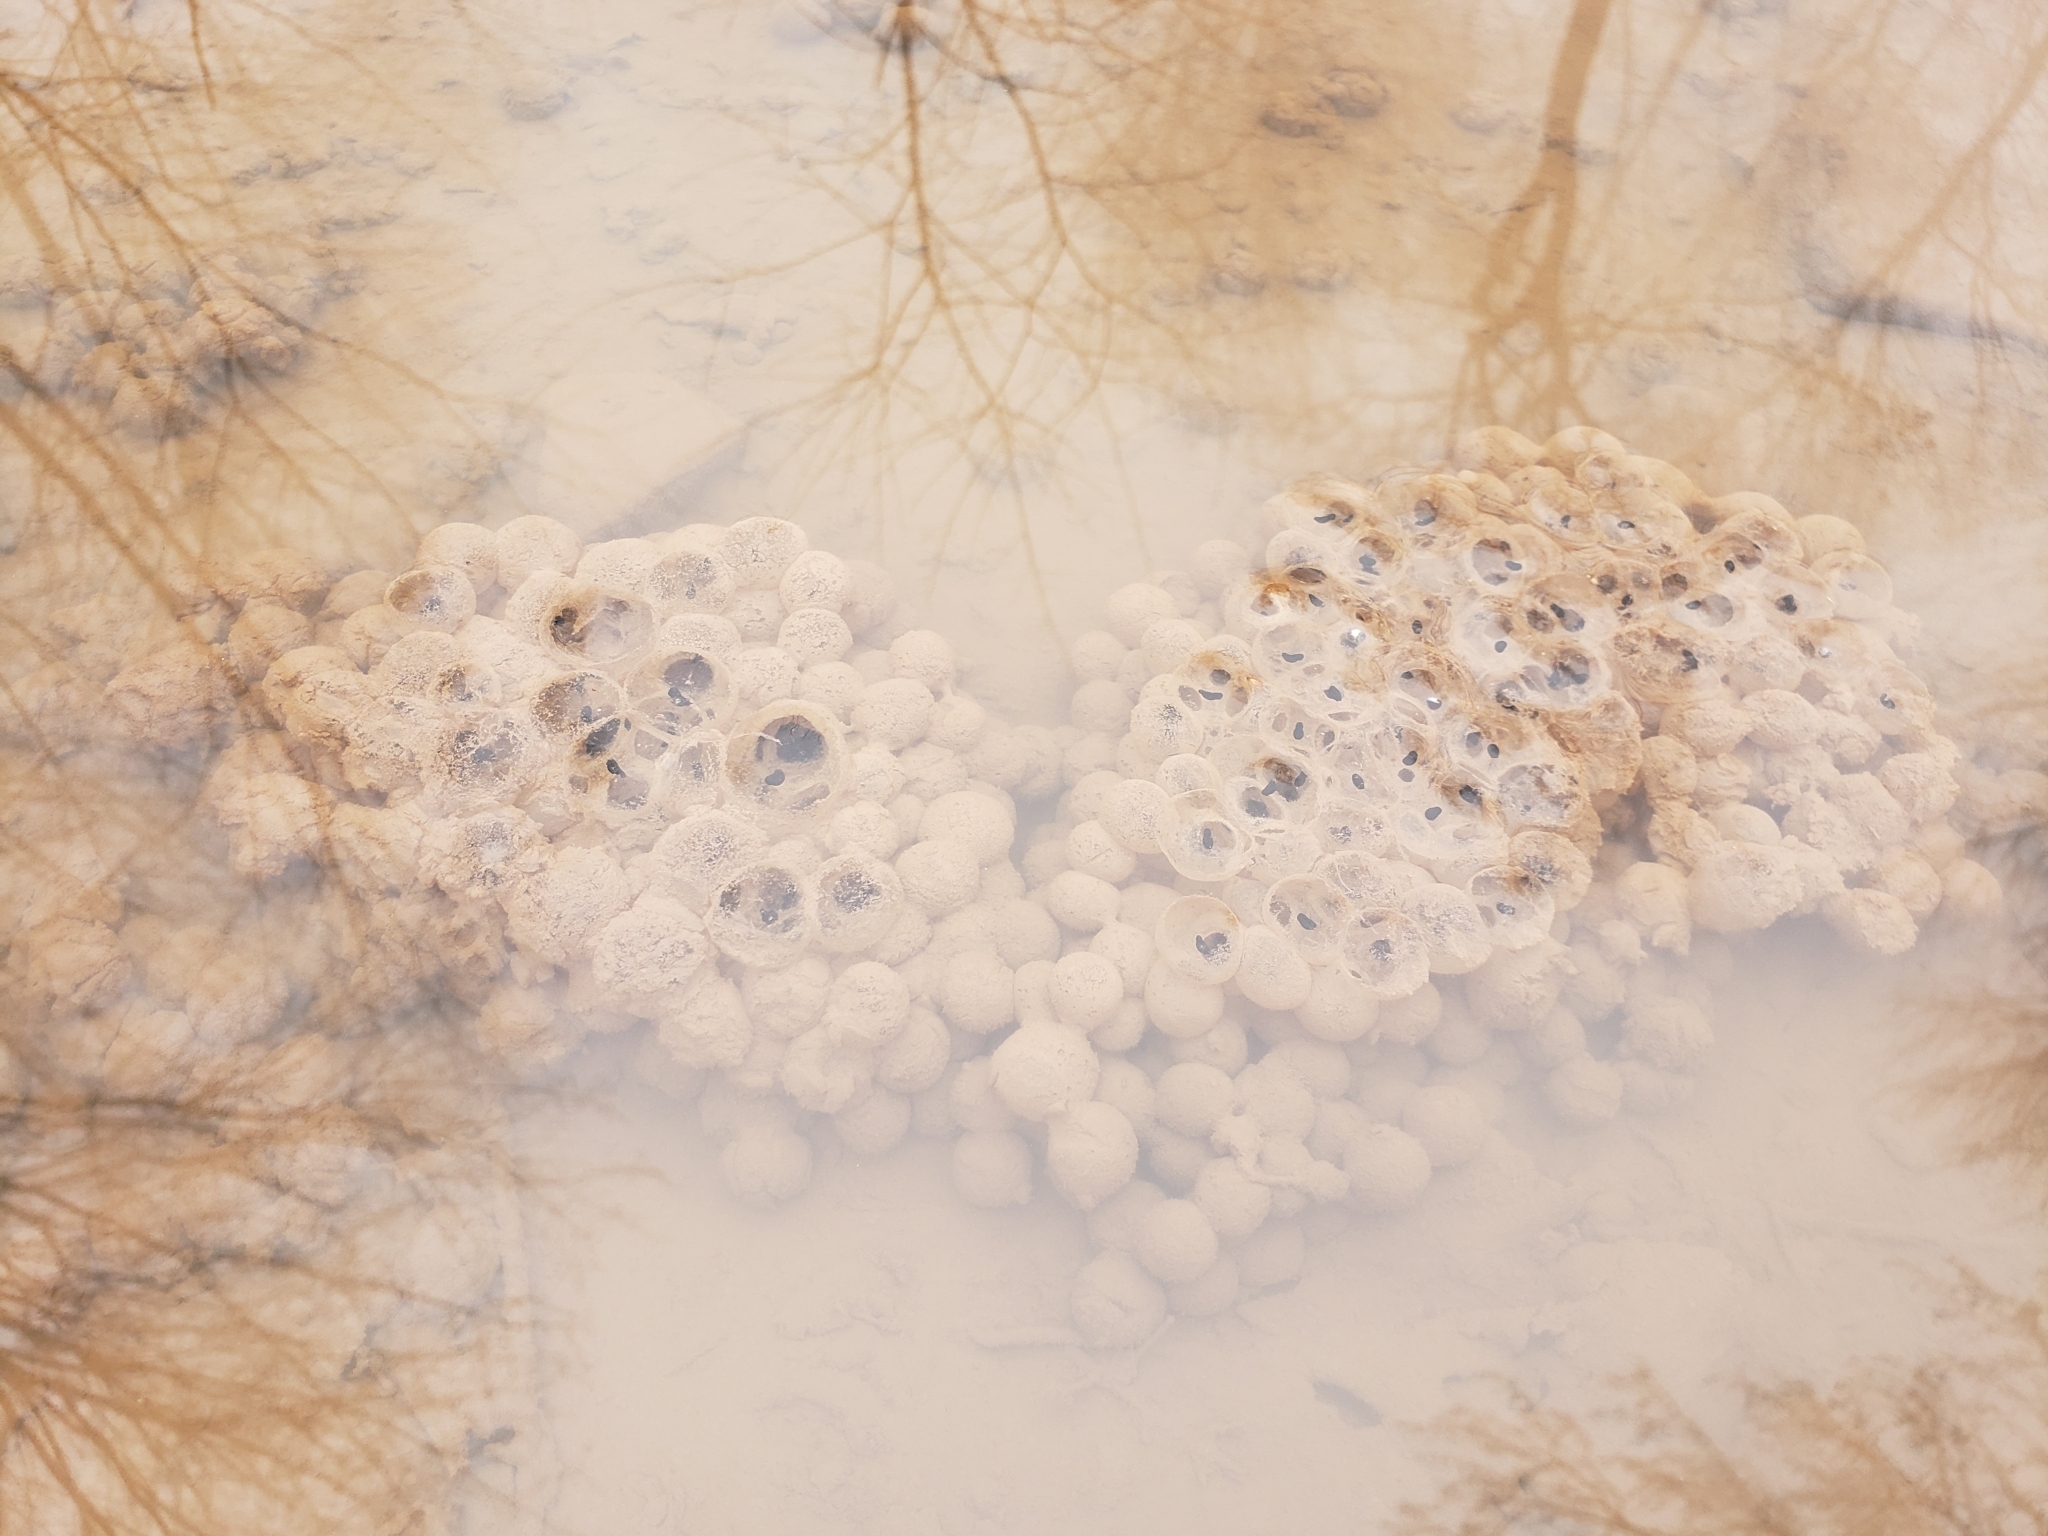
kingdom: Animalia
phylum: Chordata
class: Amphibia
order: Anura
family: Ranidae
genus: Lithobates
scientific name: Lithobates sylvaticus
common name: Wood frog
